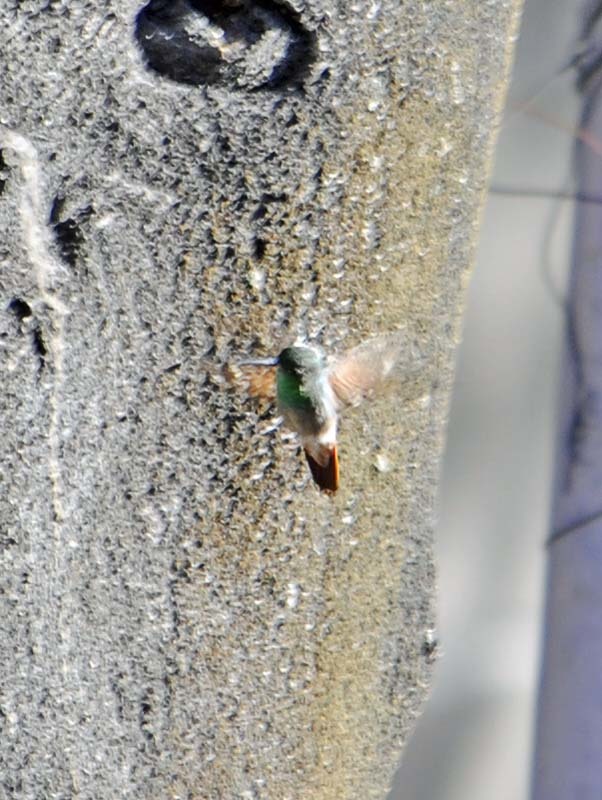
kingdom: Animalia
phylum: Chordata
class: Aves
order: Apodiformes
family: Trochilidae
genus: Saucerottia
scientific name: Saucerottia beryllina
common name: Berylline hummingbird
